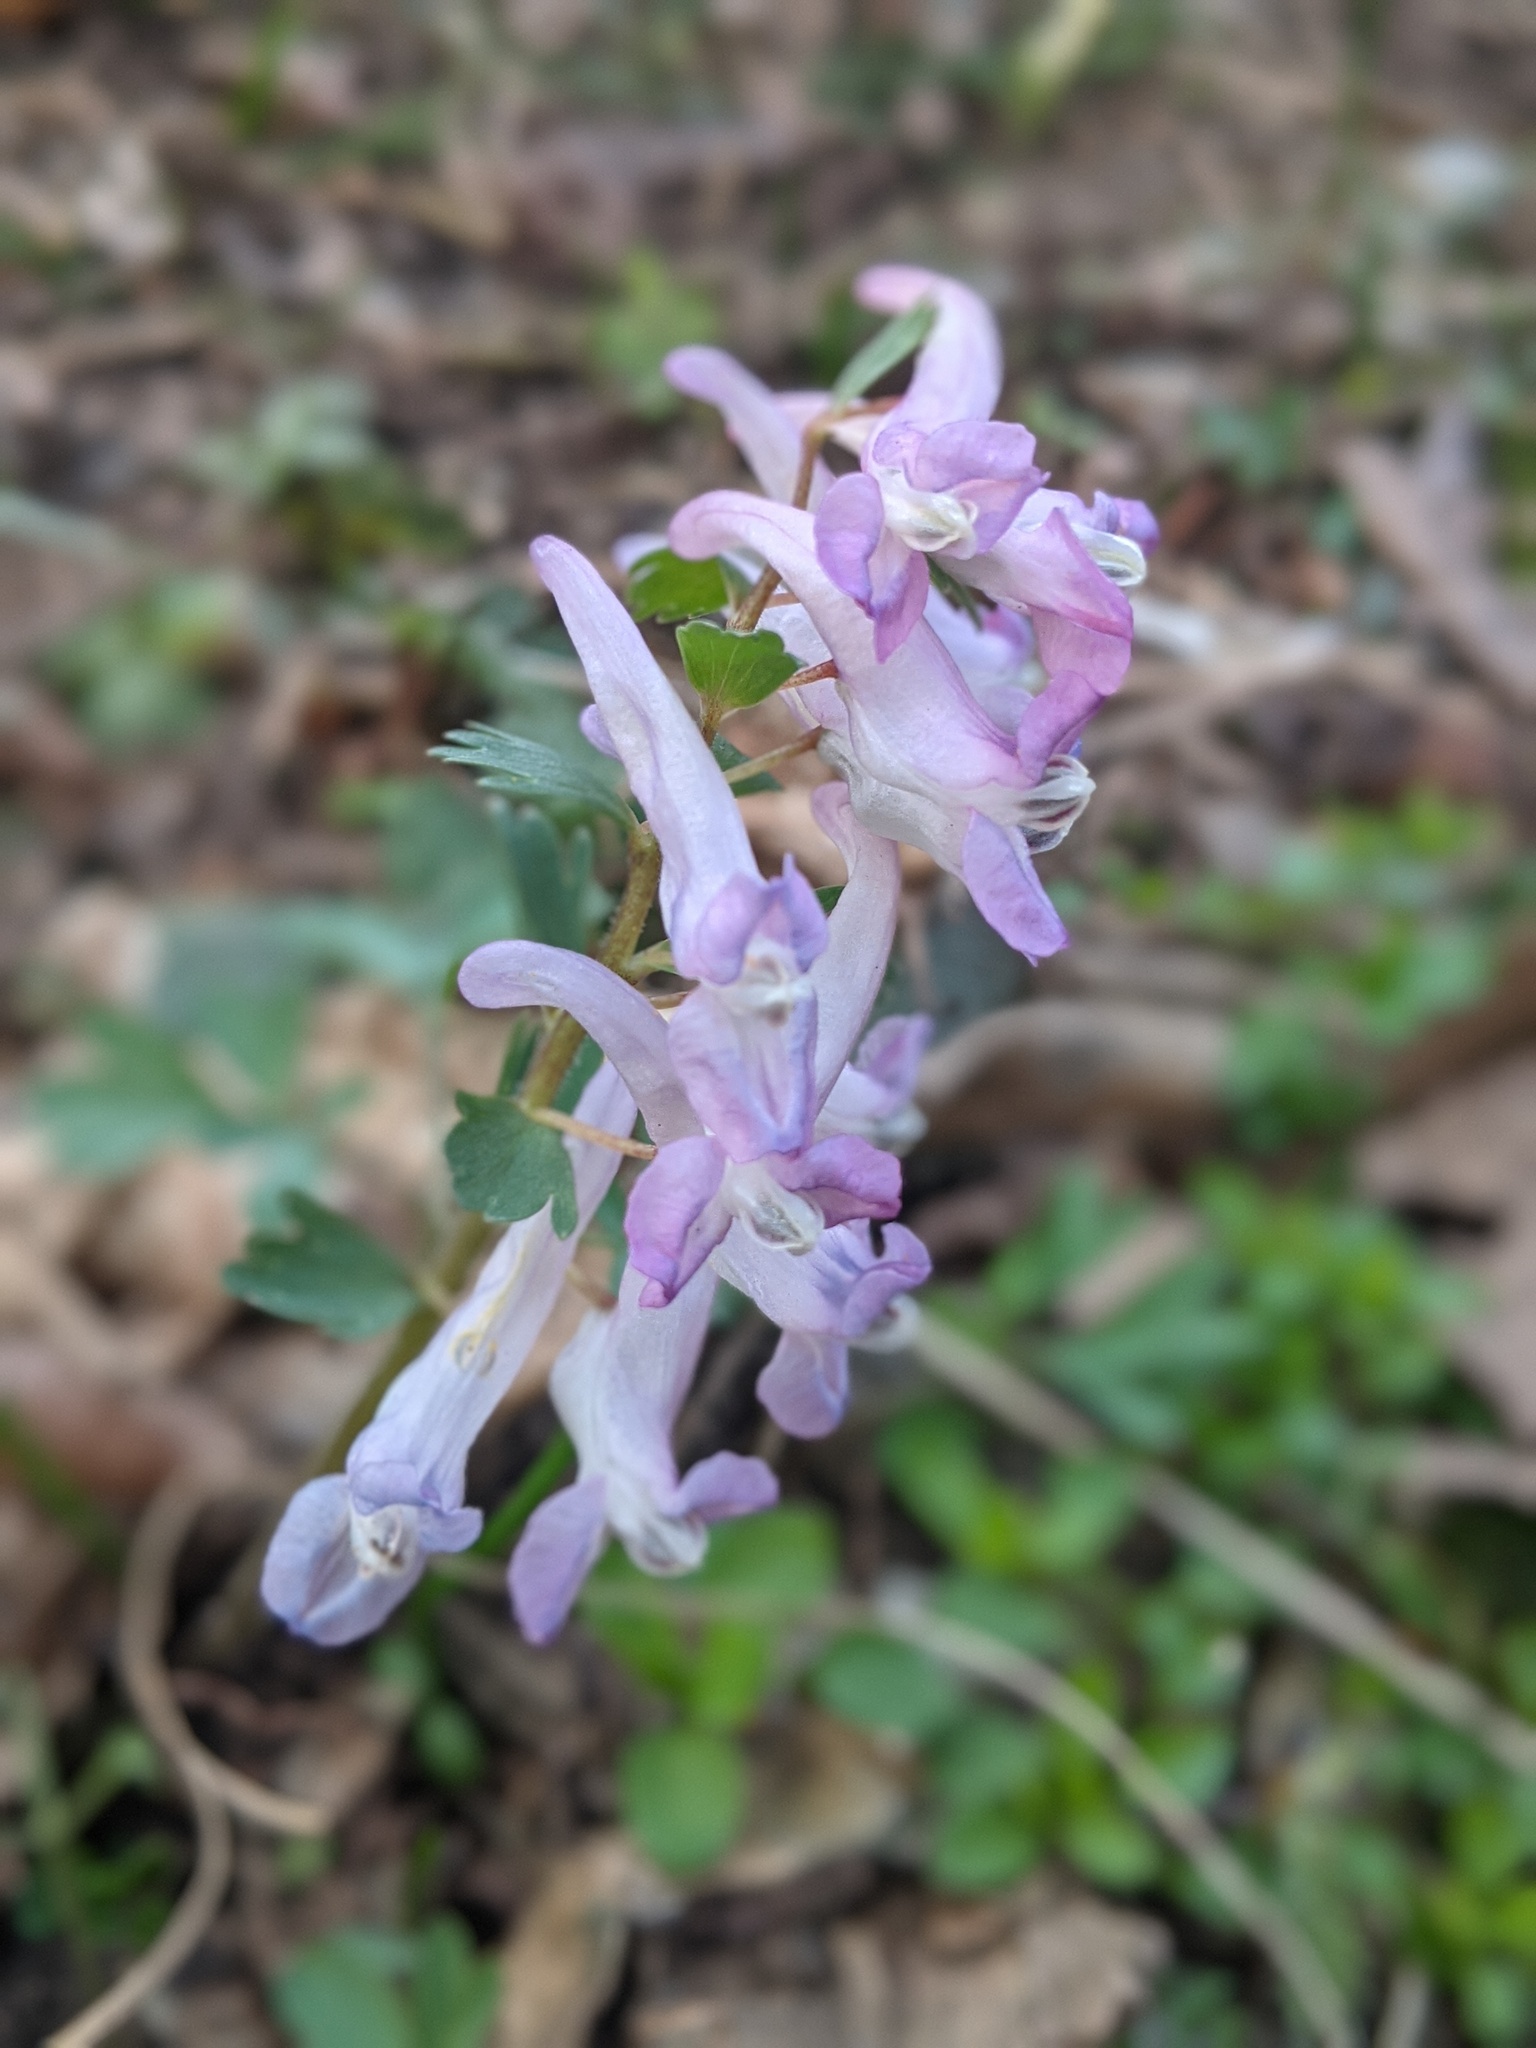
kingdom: Plantae
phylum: Tracheophyta
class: Magnoliopsida
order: Ranunculales
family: Papaveraceae
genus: Corydalis
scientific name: Corydalis solida
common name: Bird-in-a-bush
